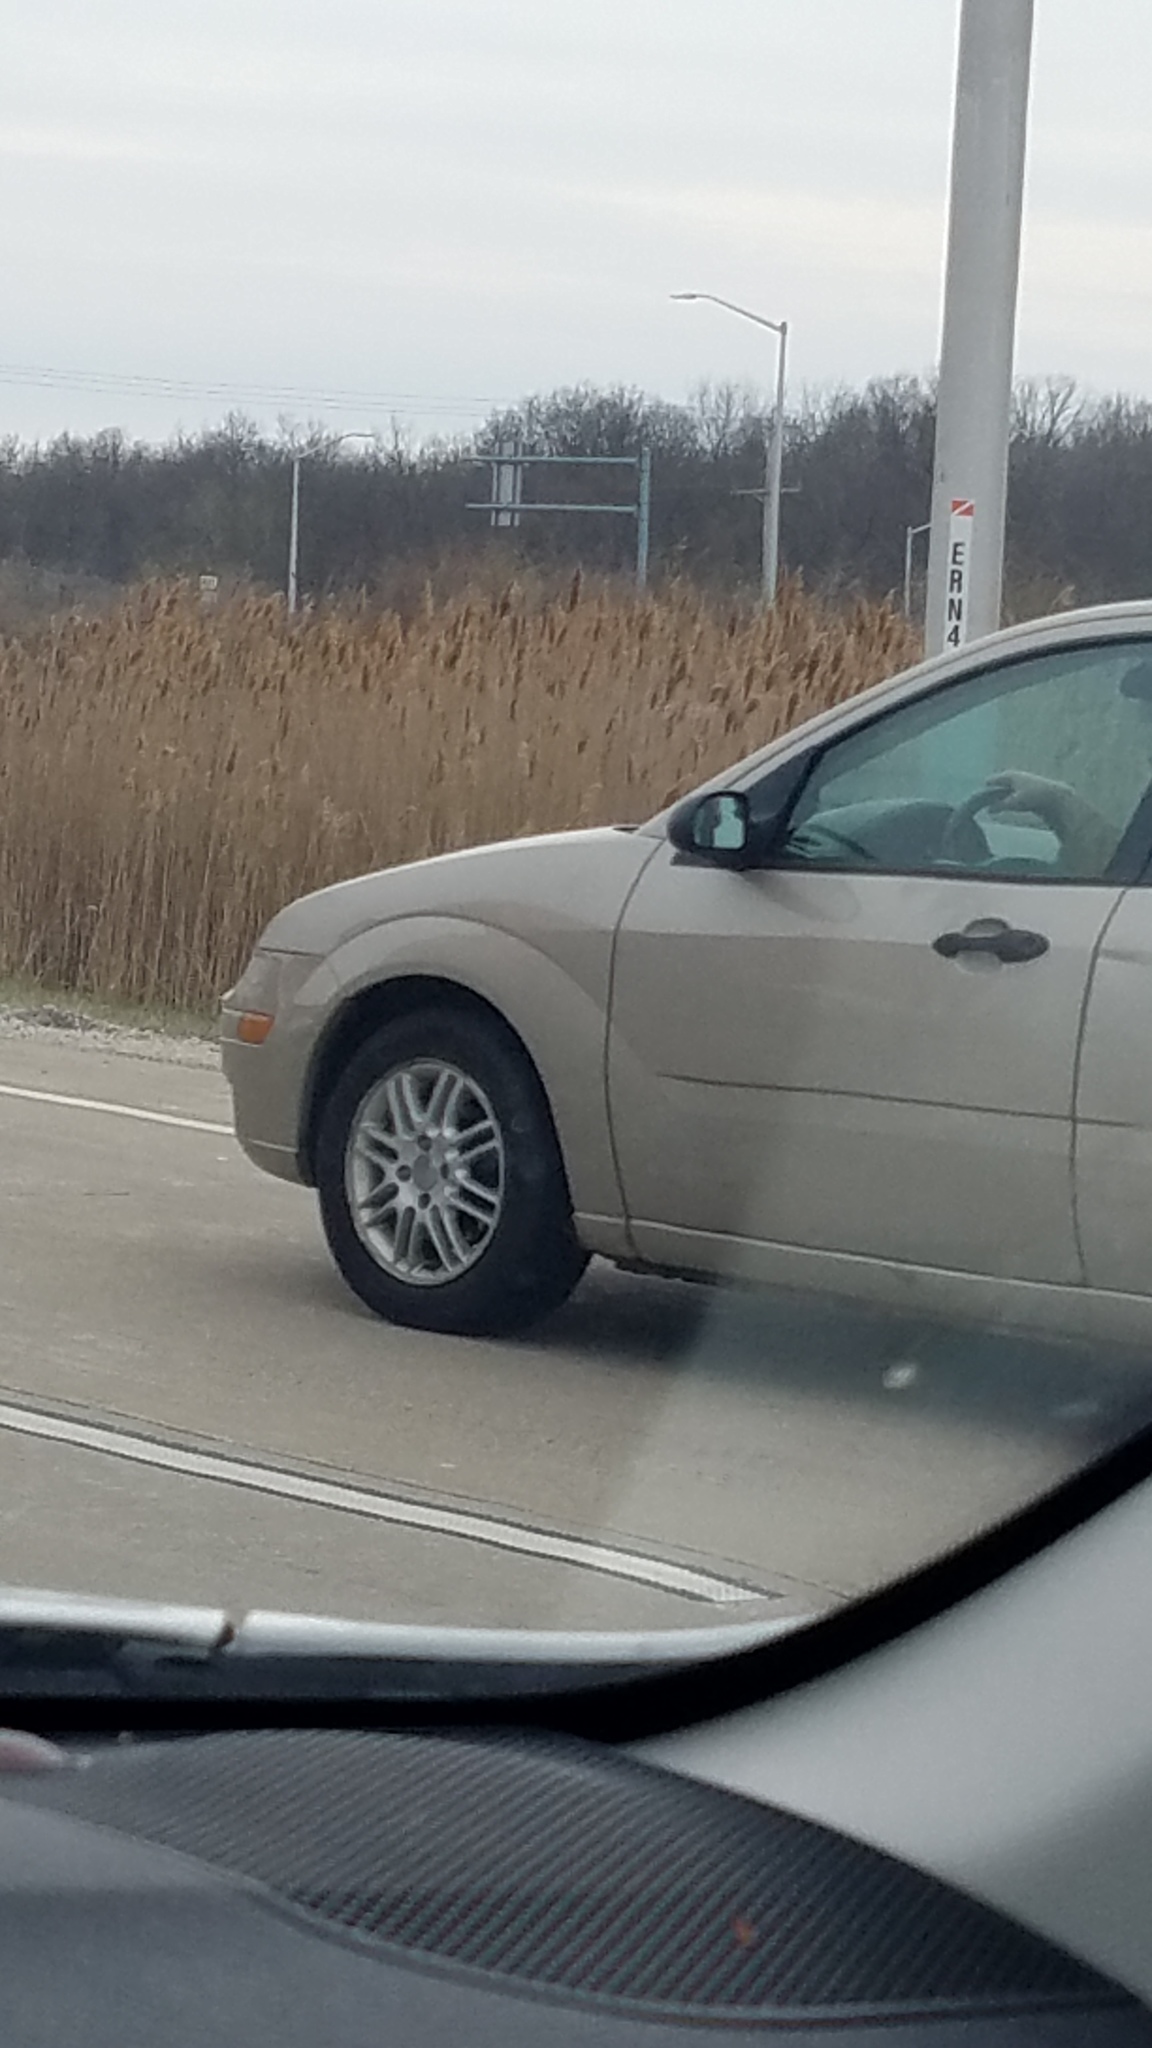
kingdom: Plantae
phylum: Tracheophyta
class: Liliopsida
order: Poales
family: Poaceae
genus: Phragmites
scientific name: Phragmites australis
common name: Common reed
